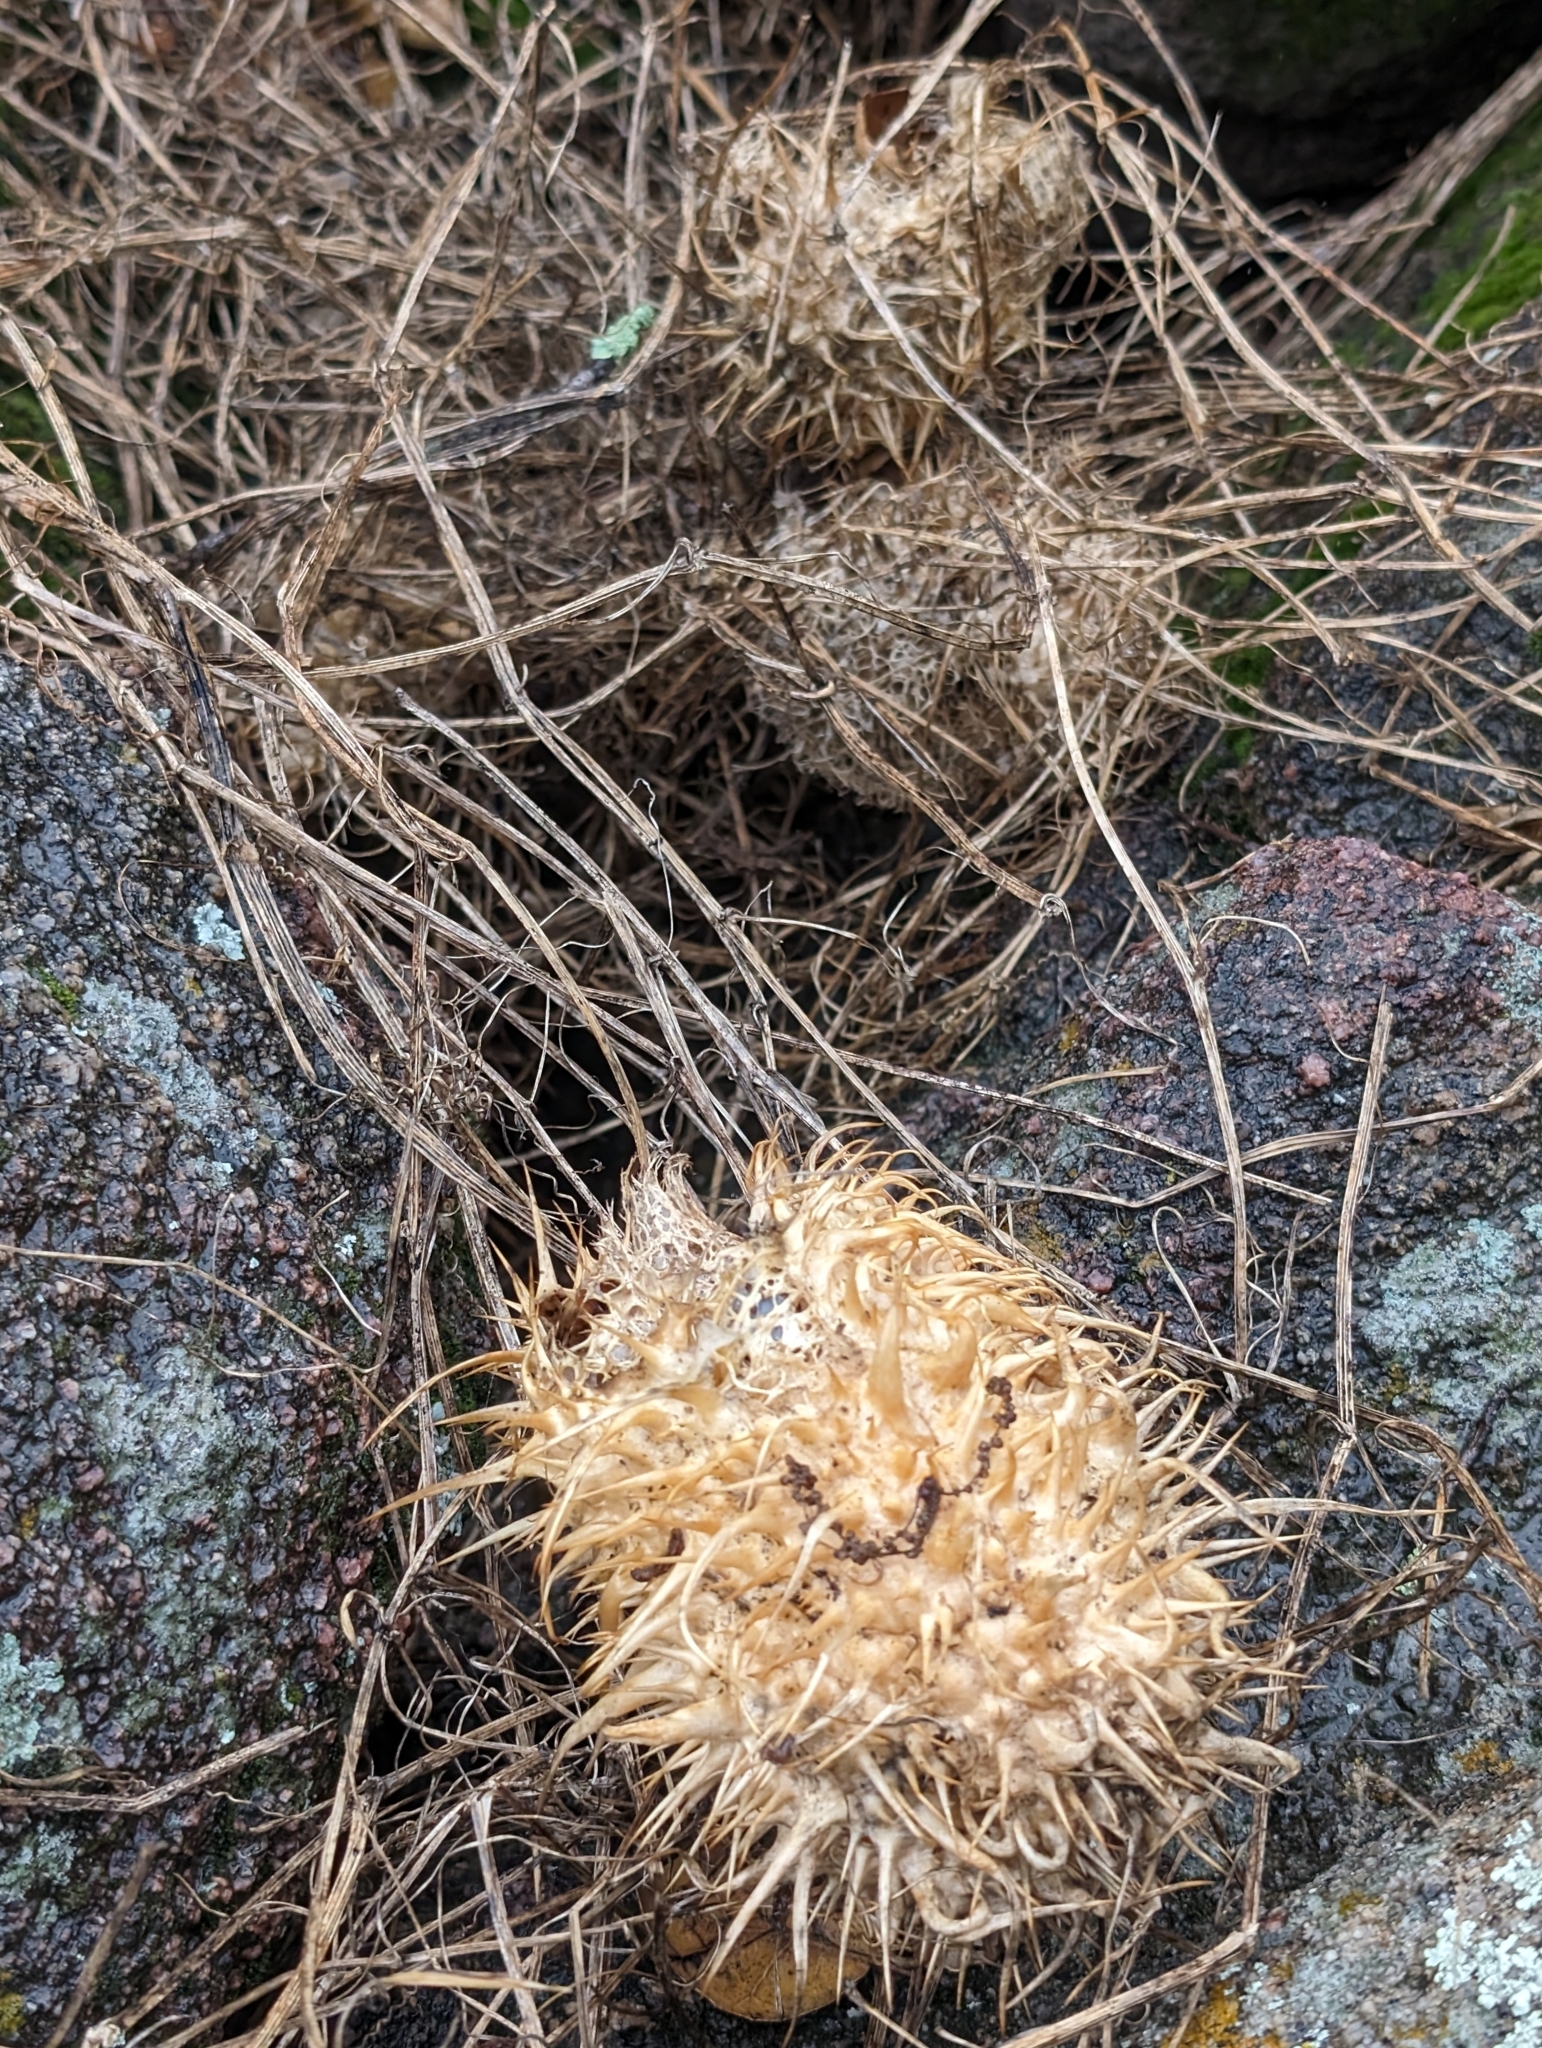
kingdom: Plantae
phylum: Tracheophyta
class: Magnoliopsida
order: Cucurbitales
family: Cucurbitaceae
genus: Marah
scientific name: Marah macrocarpa
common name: Cucamonga manroot
